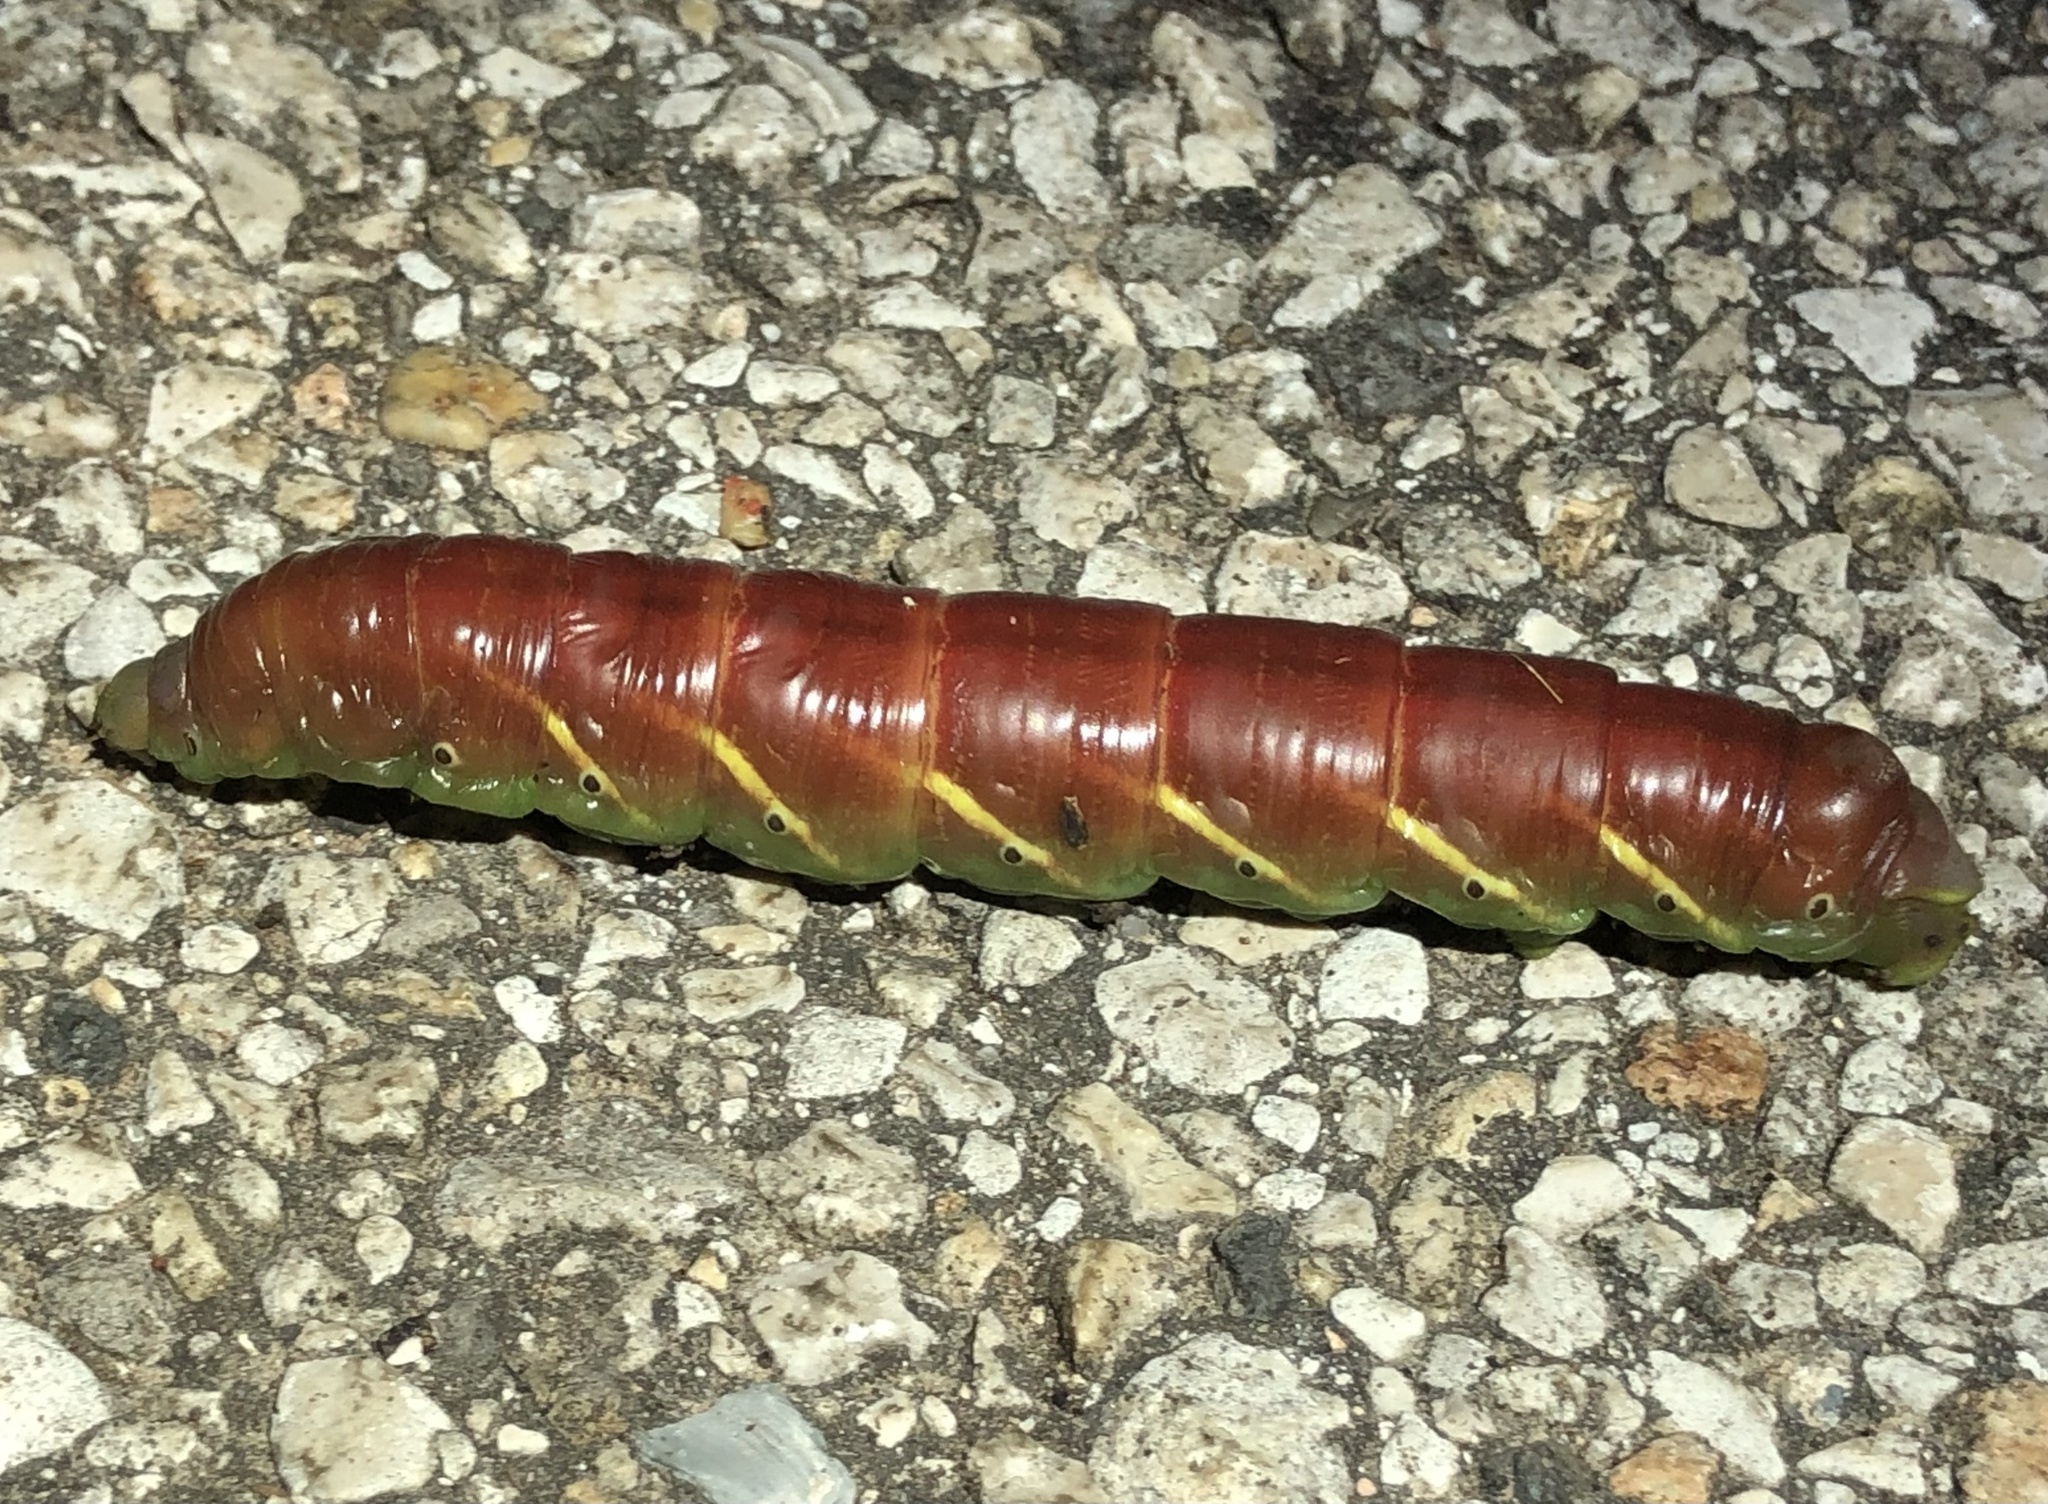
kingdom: Animalia
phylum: Arthropoda
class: Insecta
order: Lepidoptera
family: Sphingidae
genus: Eumorpha
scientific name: Eumorpha fasciatus
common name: Banded sphinx
